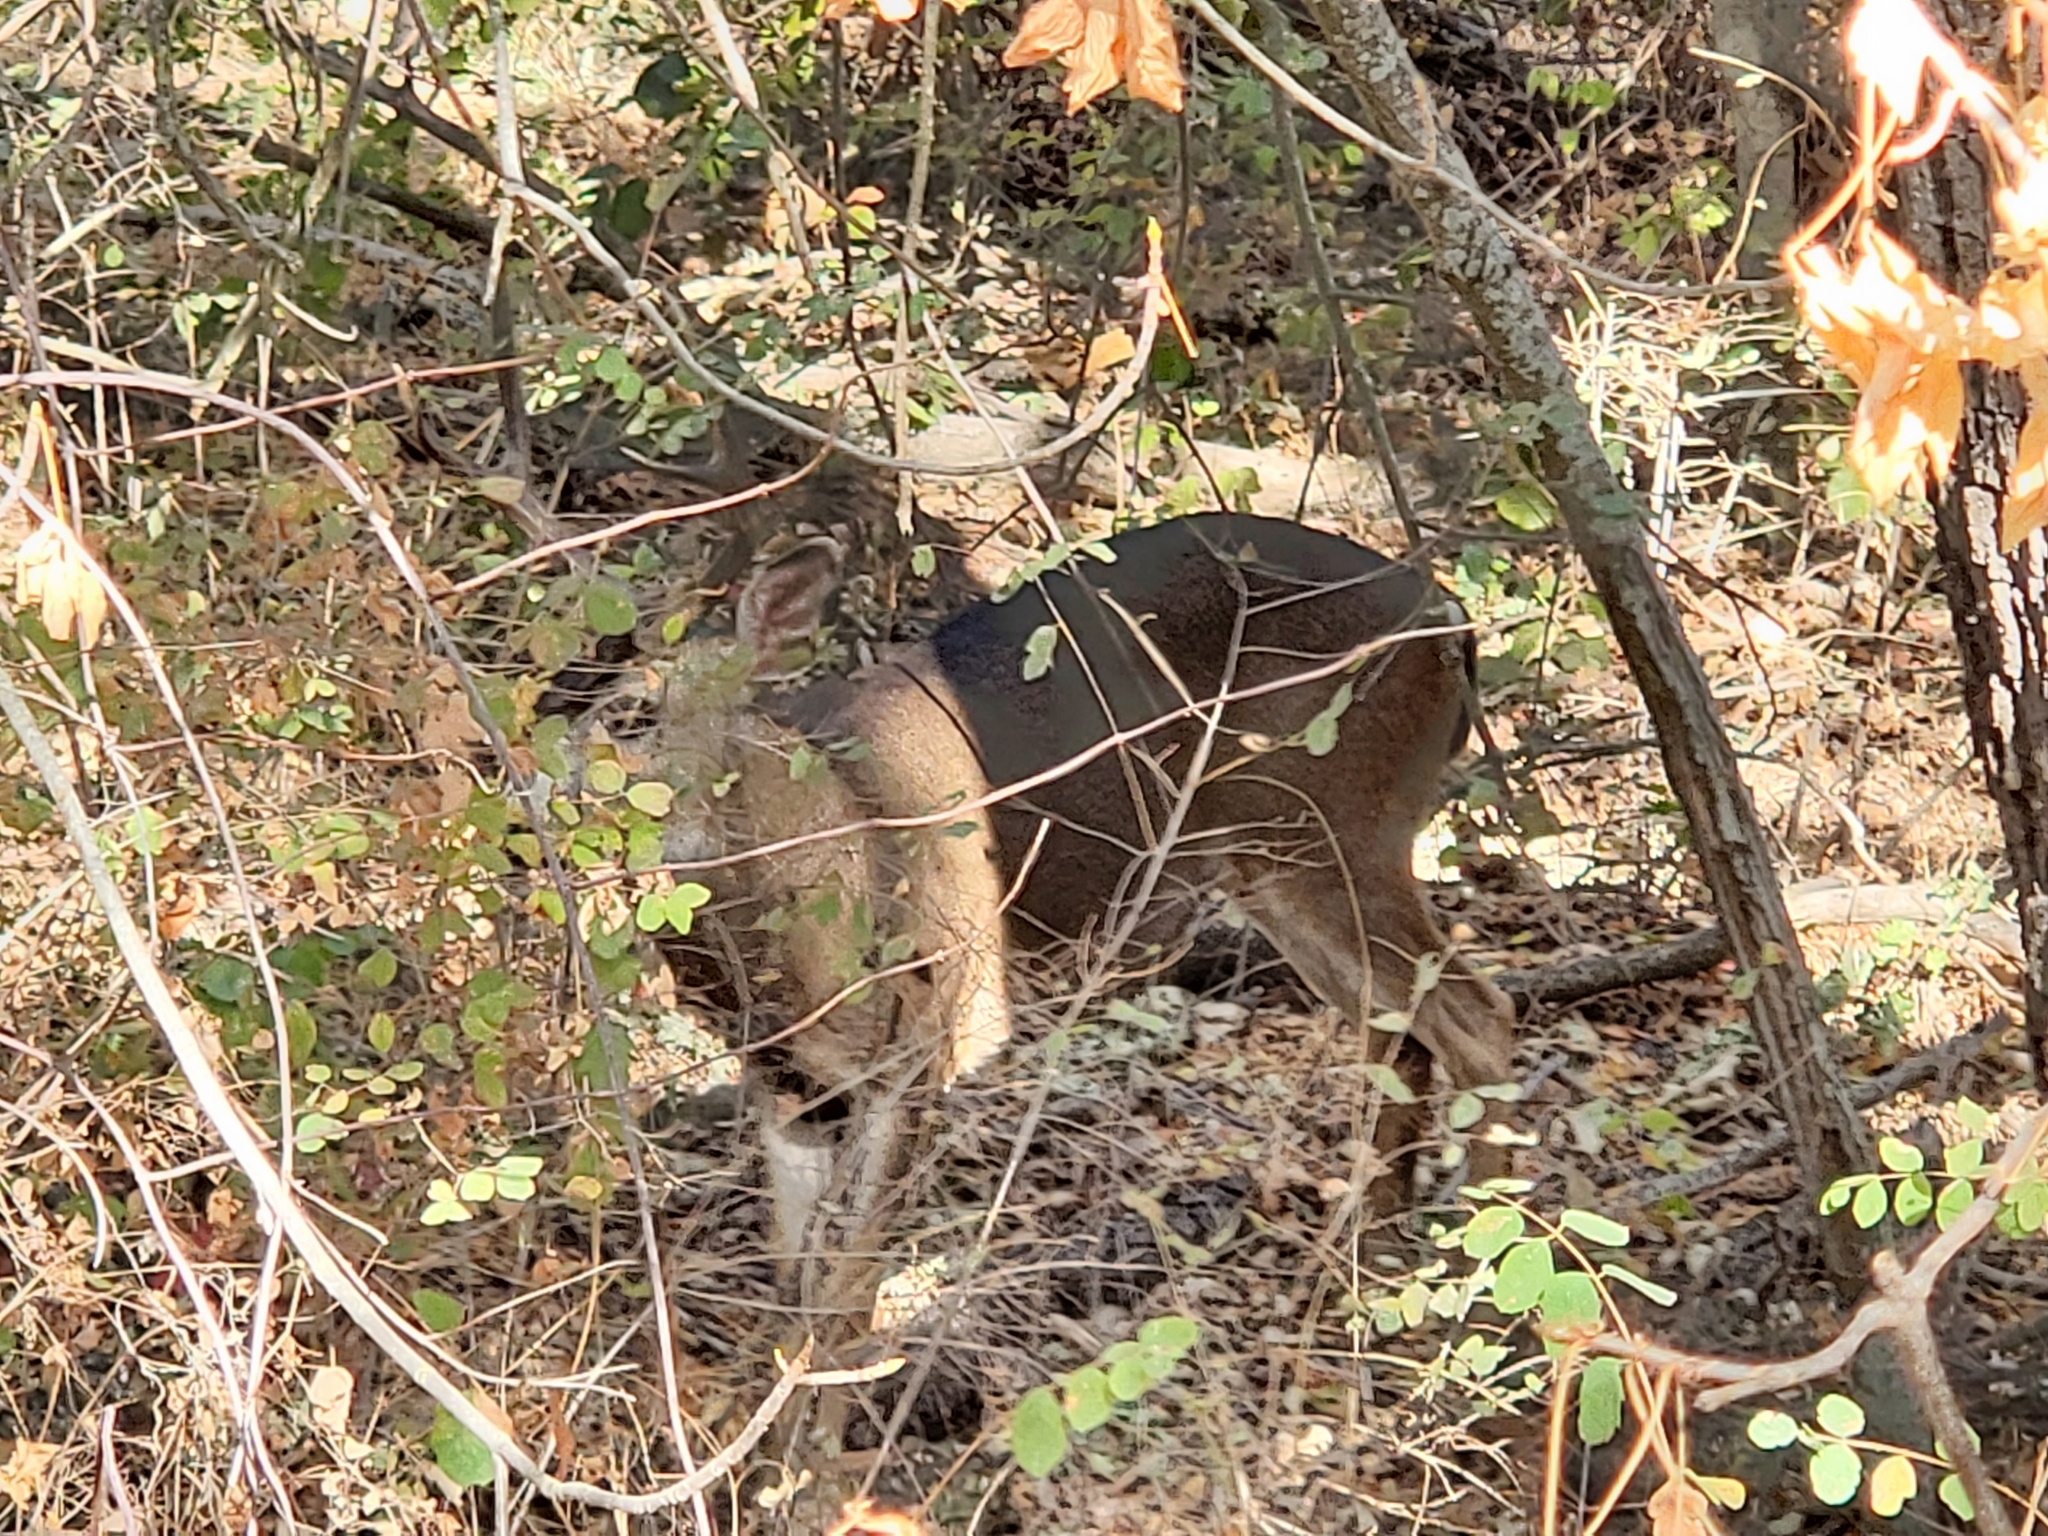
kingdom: Animalia
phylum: Chordata
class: Mammalia
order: Artiodactyla
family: Cervidae
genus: Odocoileus
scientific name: Odocoileus hemionus
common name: Mule deer
